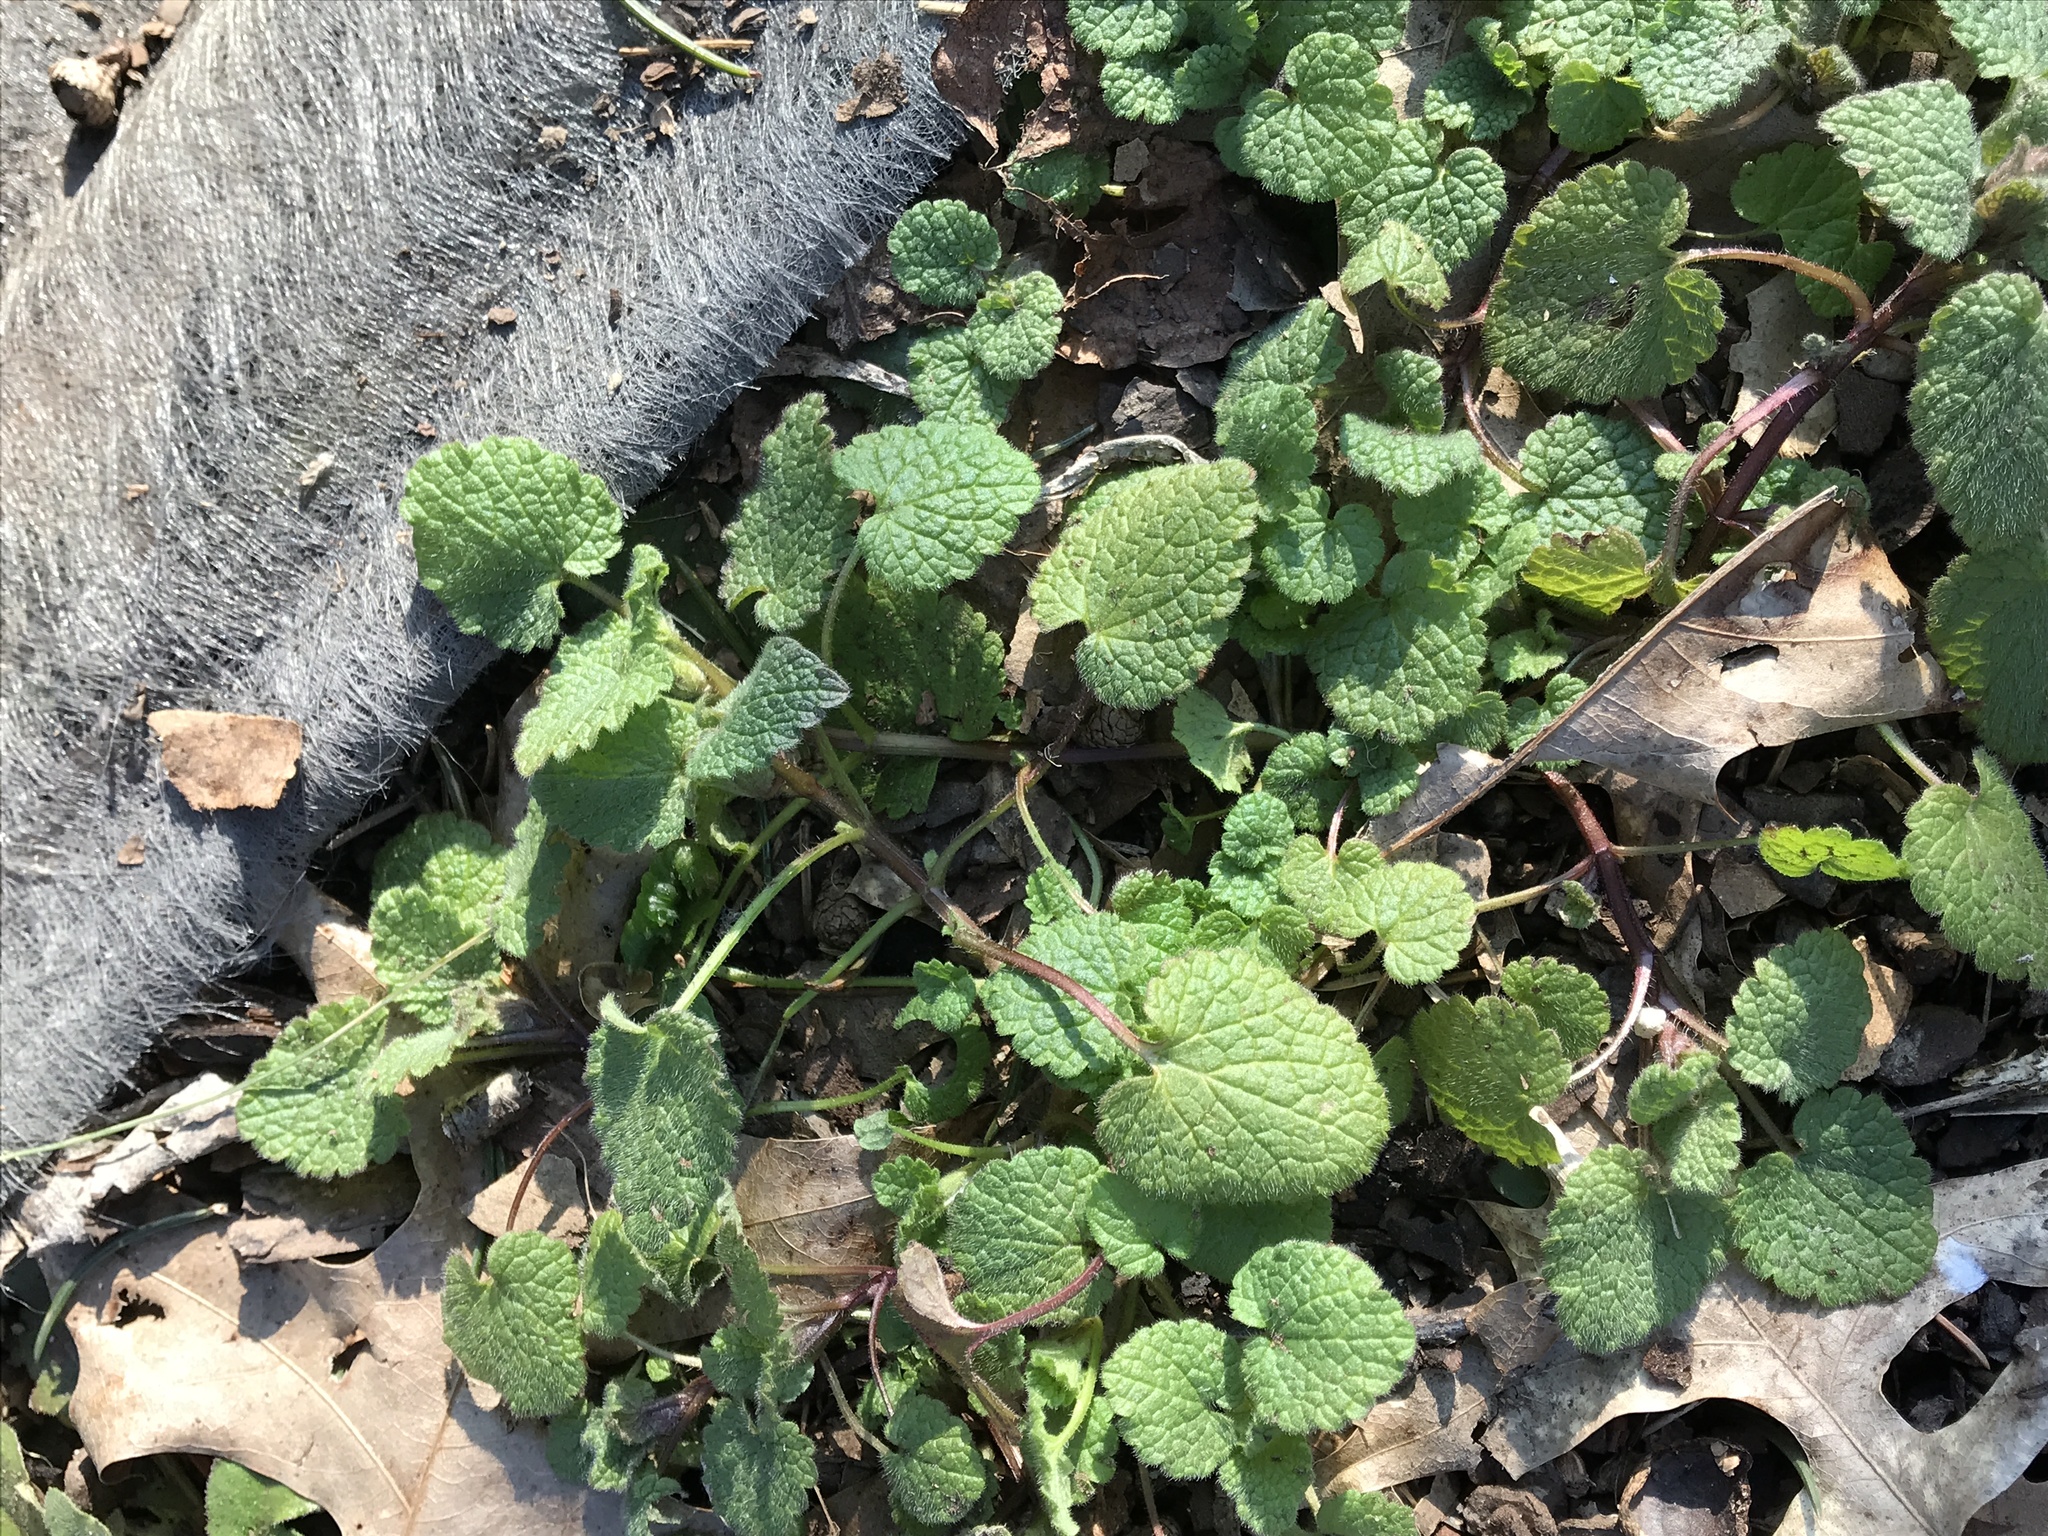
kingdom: Plantae
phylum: Tracheophyta
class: Magnoliopsida
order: Lamiales
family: Lamiaceae
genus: Lamium
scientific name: Lamium purpureum
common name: Red dead-nettle
